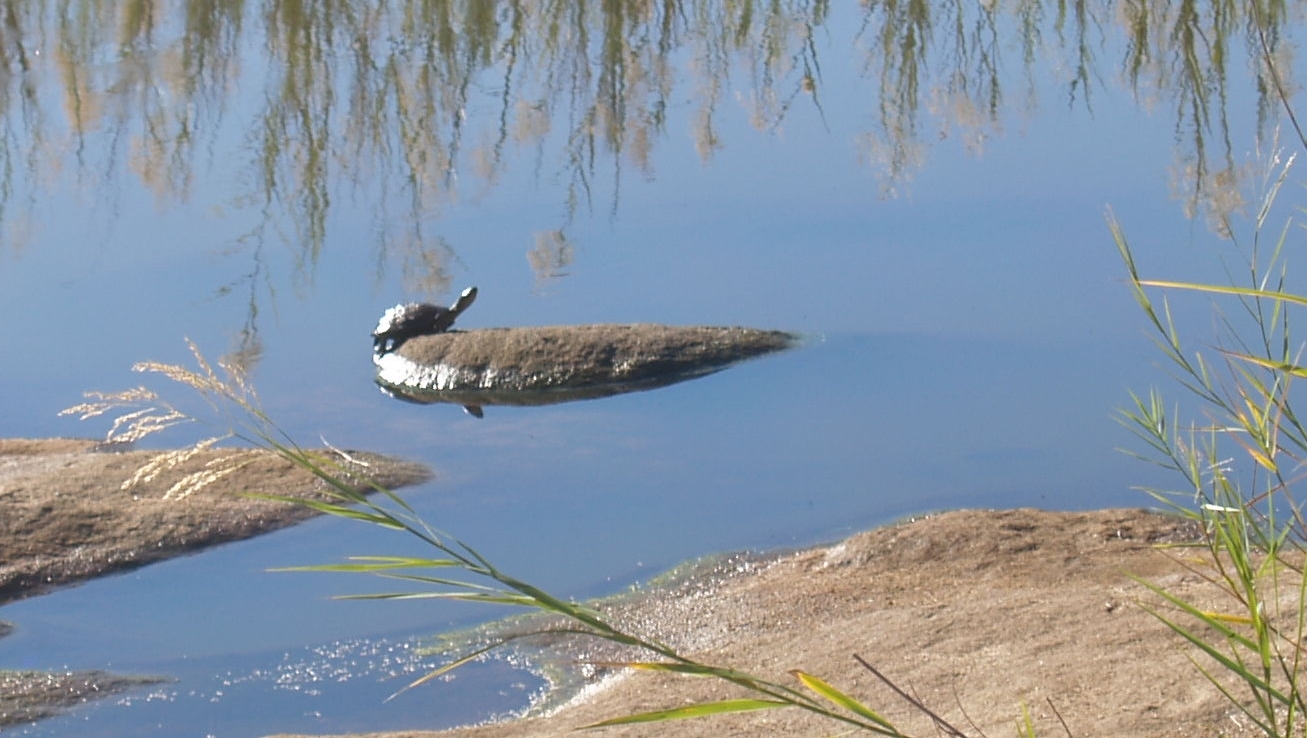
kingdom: Animalia
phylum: Chordata
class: Testudines
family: Pelomedusidae
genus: Pelusios
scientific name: Pelusios sinuatus
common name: Serrated hinged terrapin
